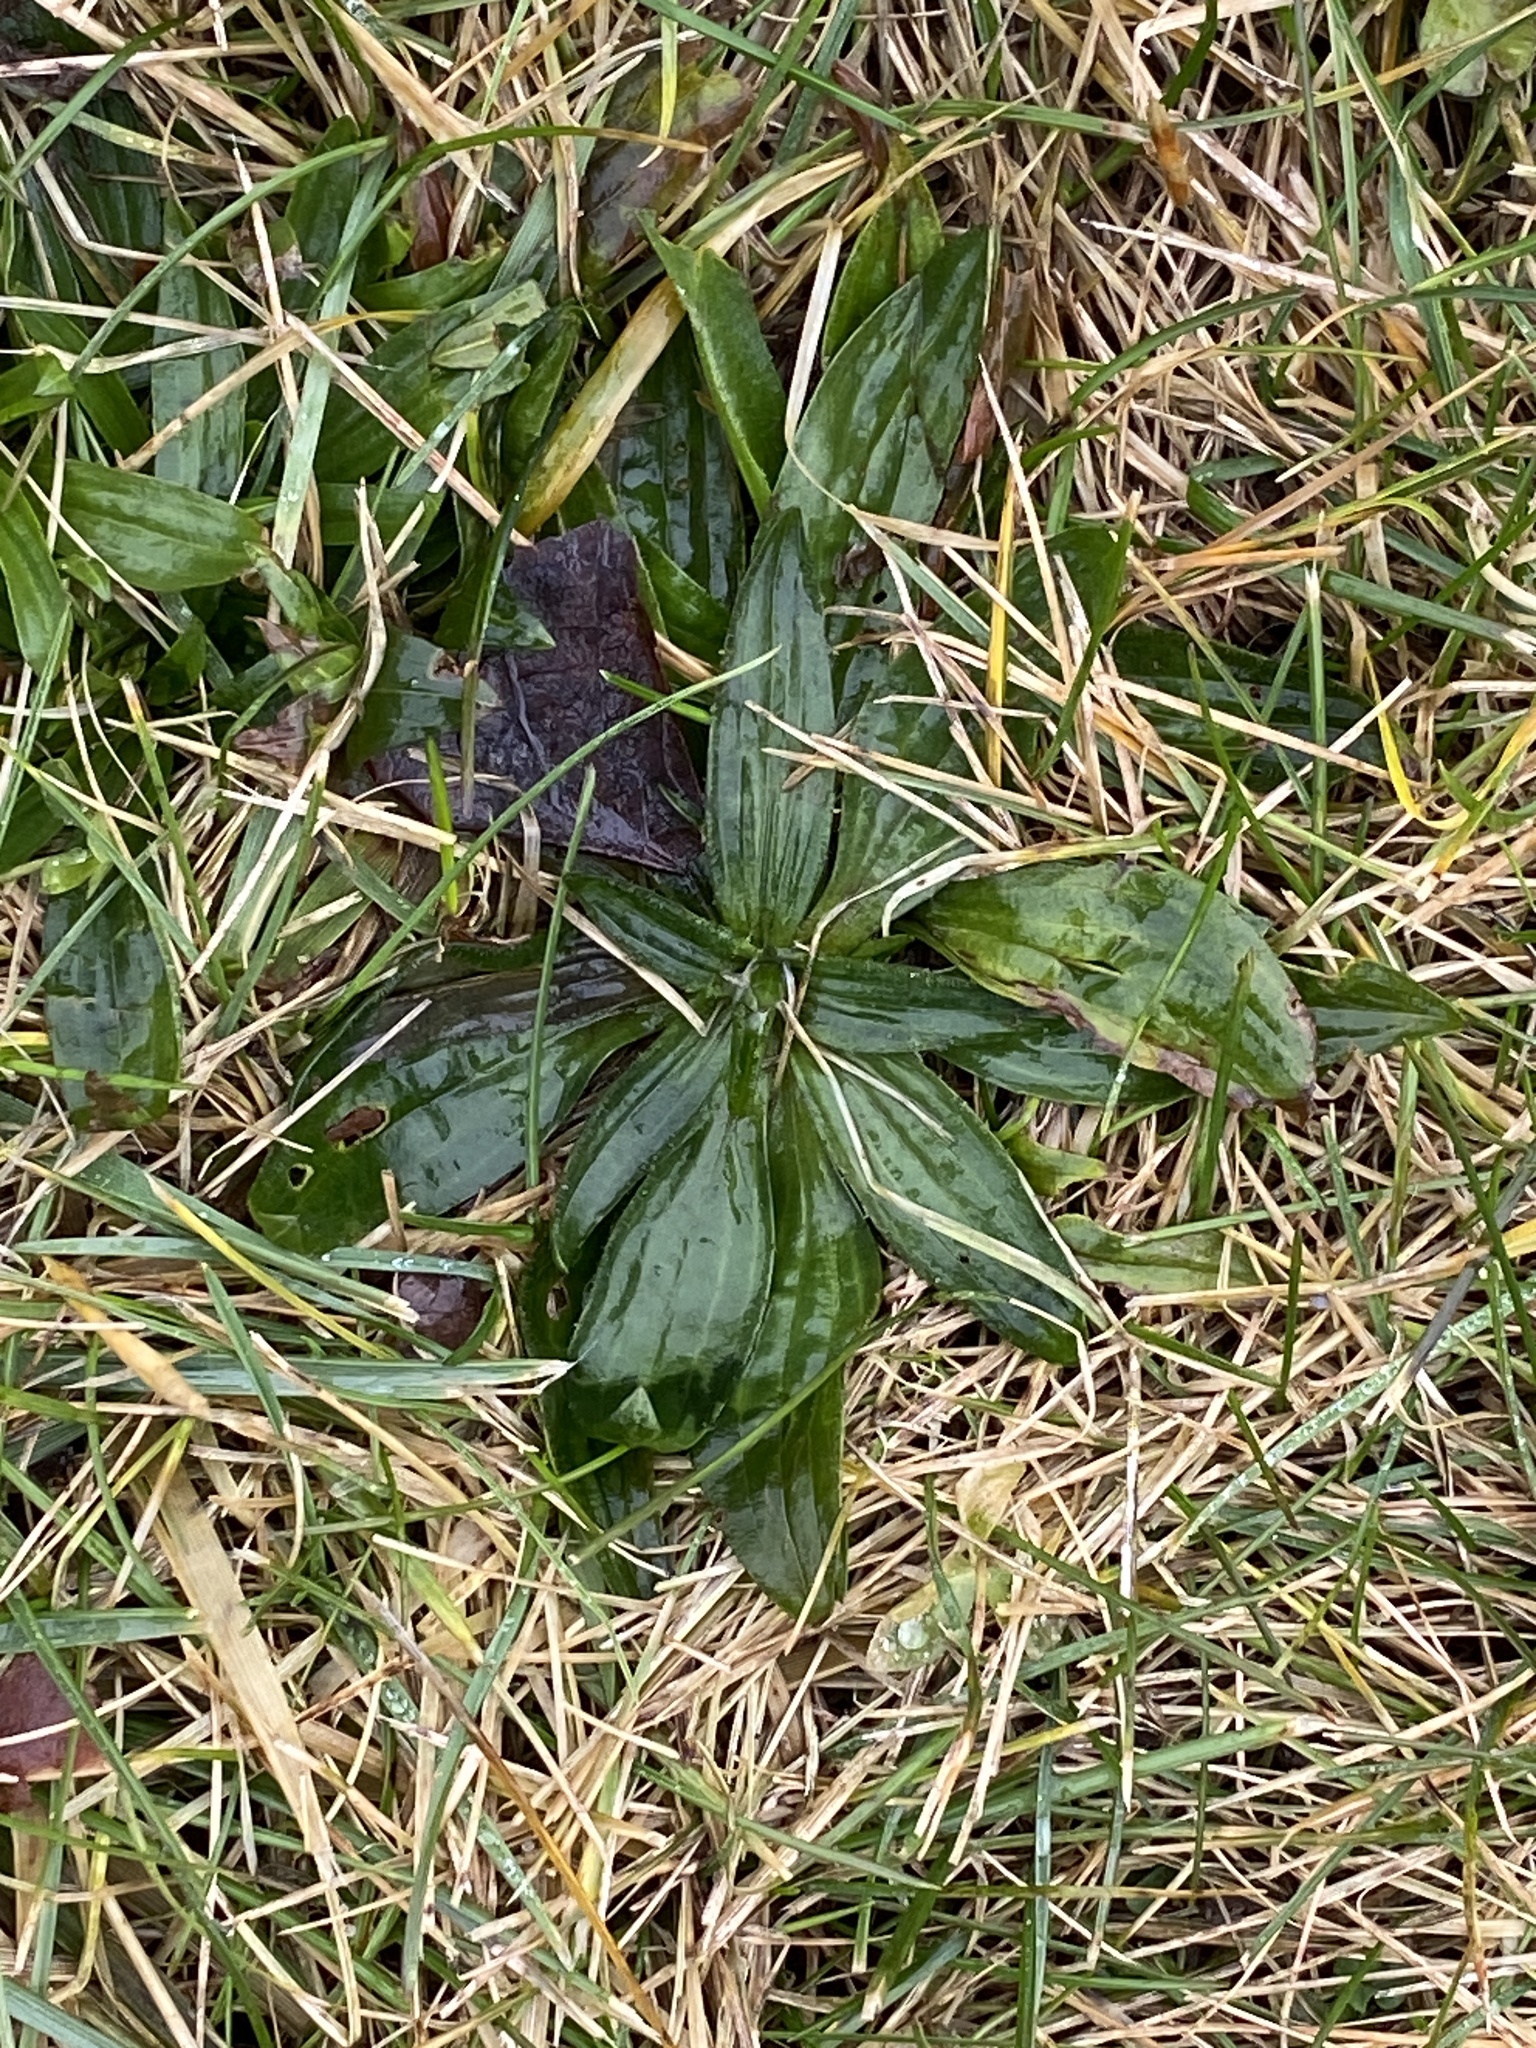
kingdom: Plantae
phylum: Tracheophyta
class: Magnoliopsida
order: Lamiales
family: Plantaginaceae
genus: Plantago
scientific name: Plantago lanceolata
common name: Ribwort plantain
